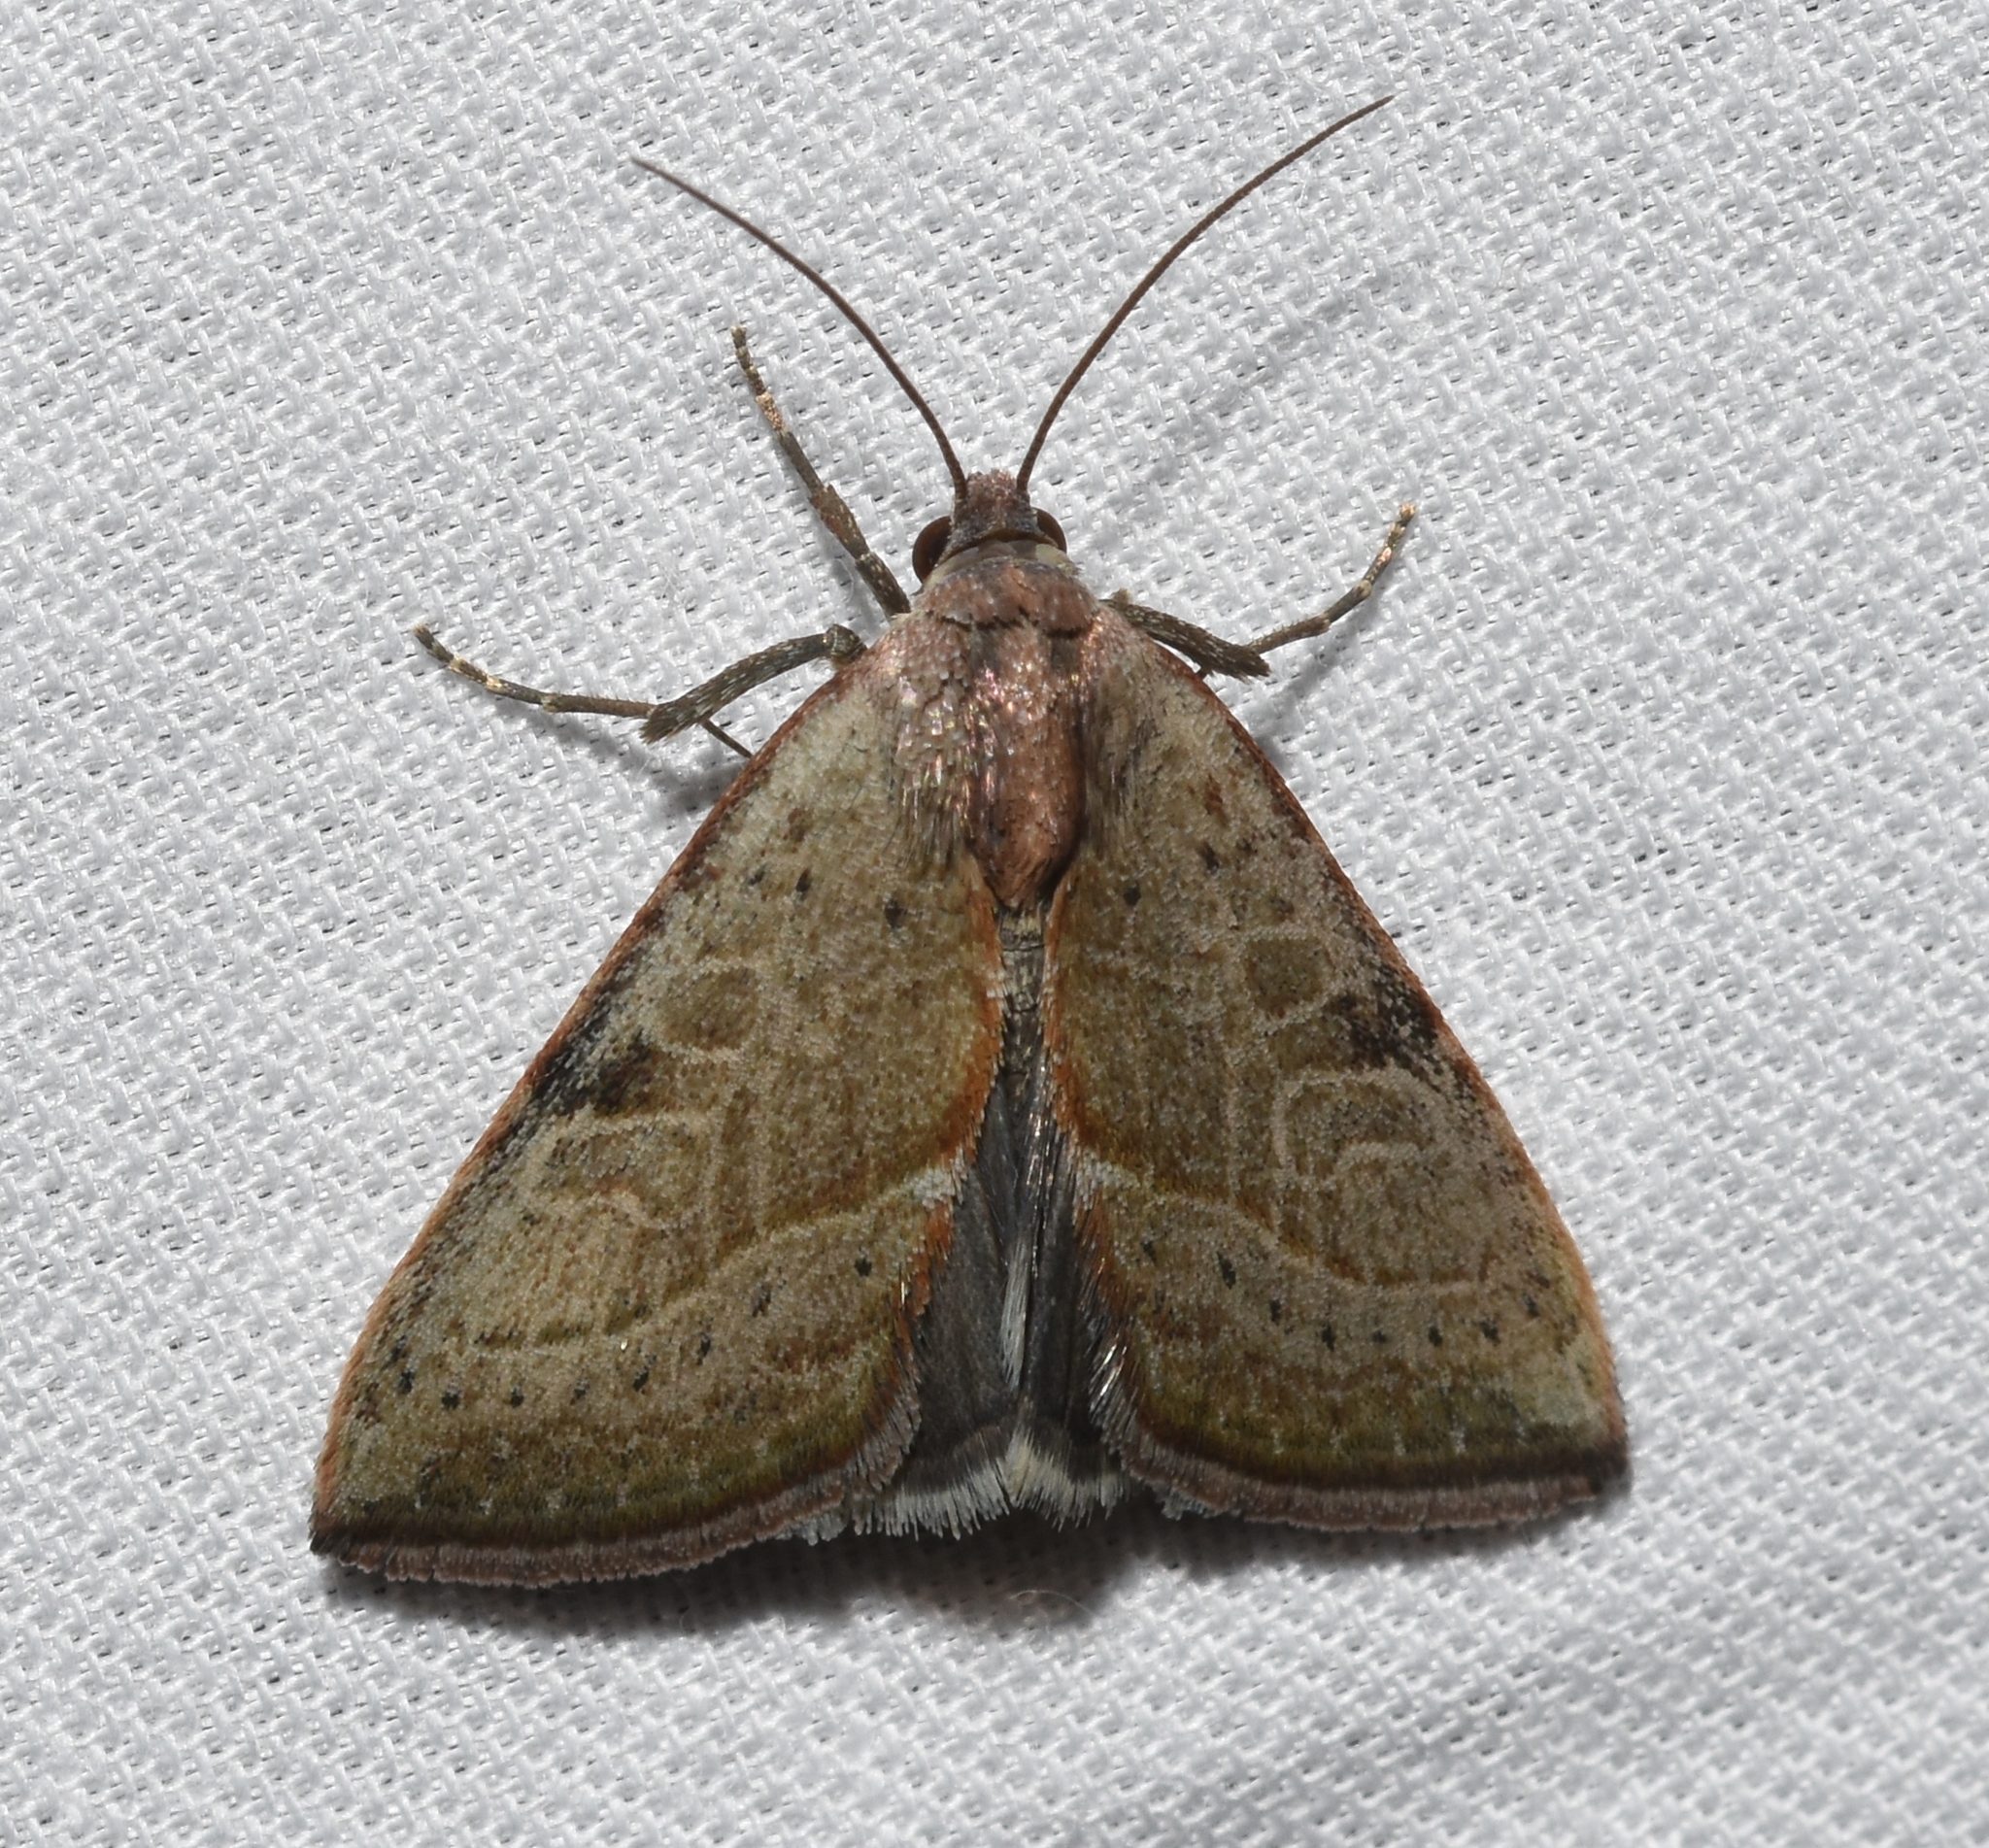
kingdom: Animalia
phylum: Arthropoda
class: Insecta
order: Lepidoptera
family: Noctuidae
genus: Galgula
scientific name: Galgula partita
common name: Wedgeling
